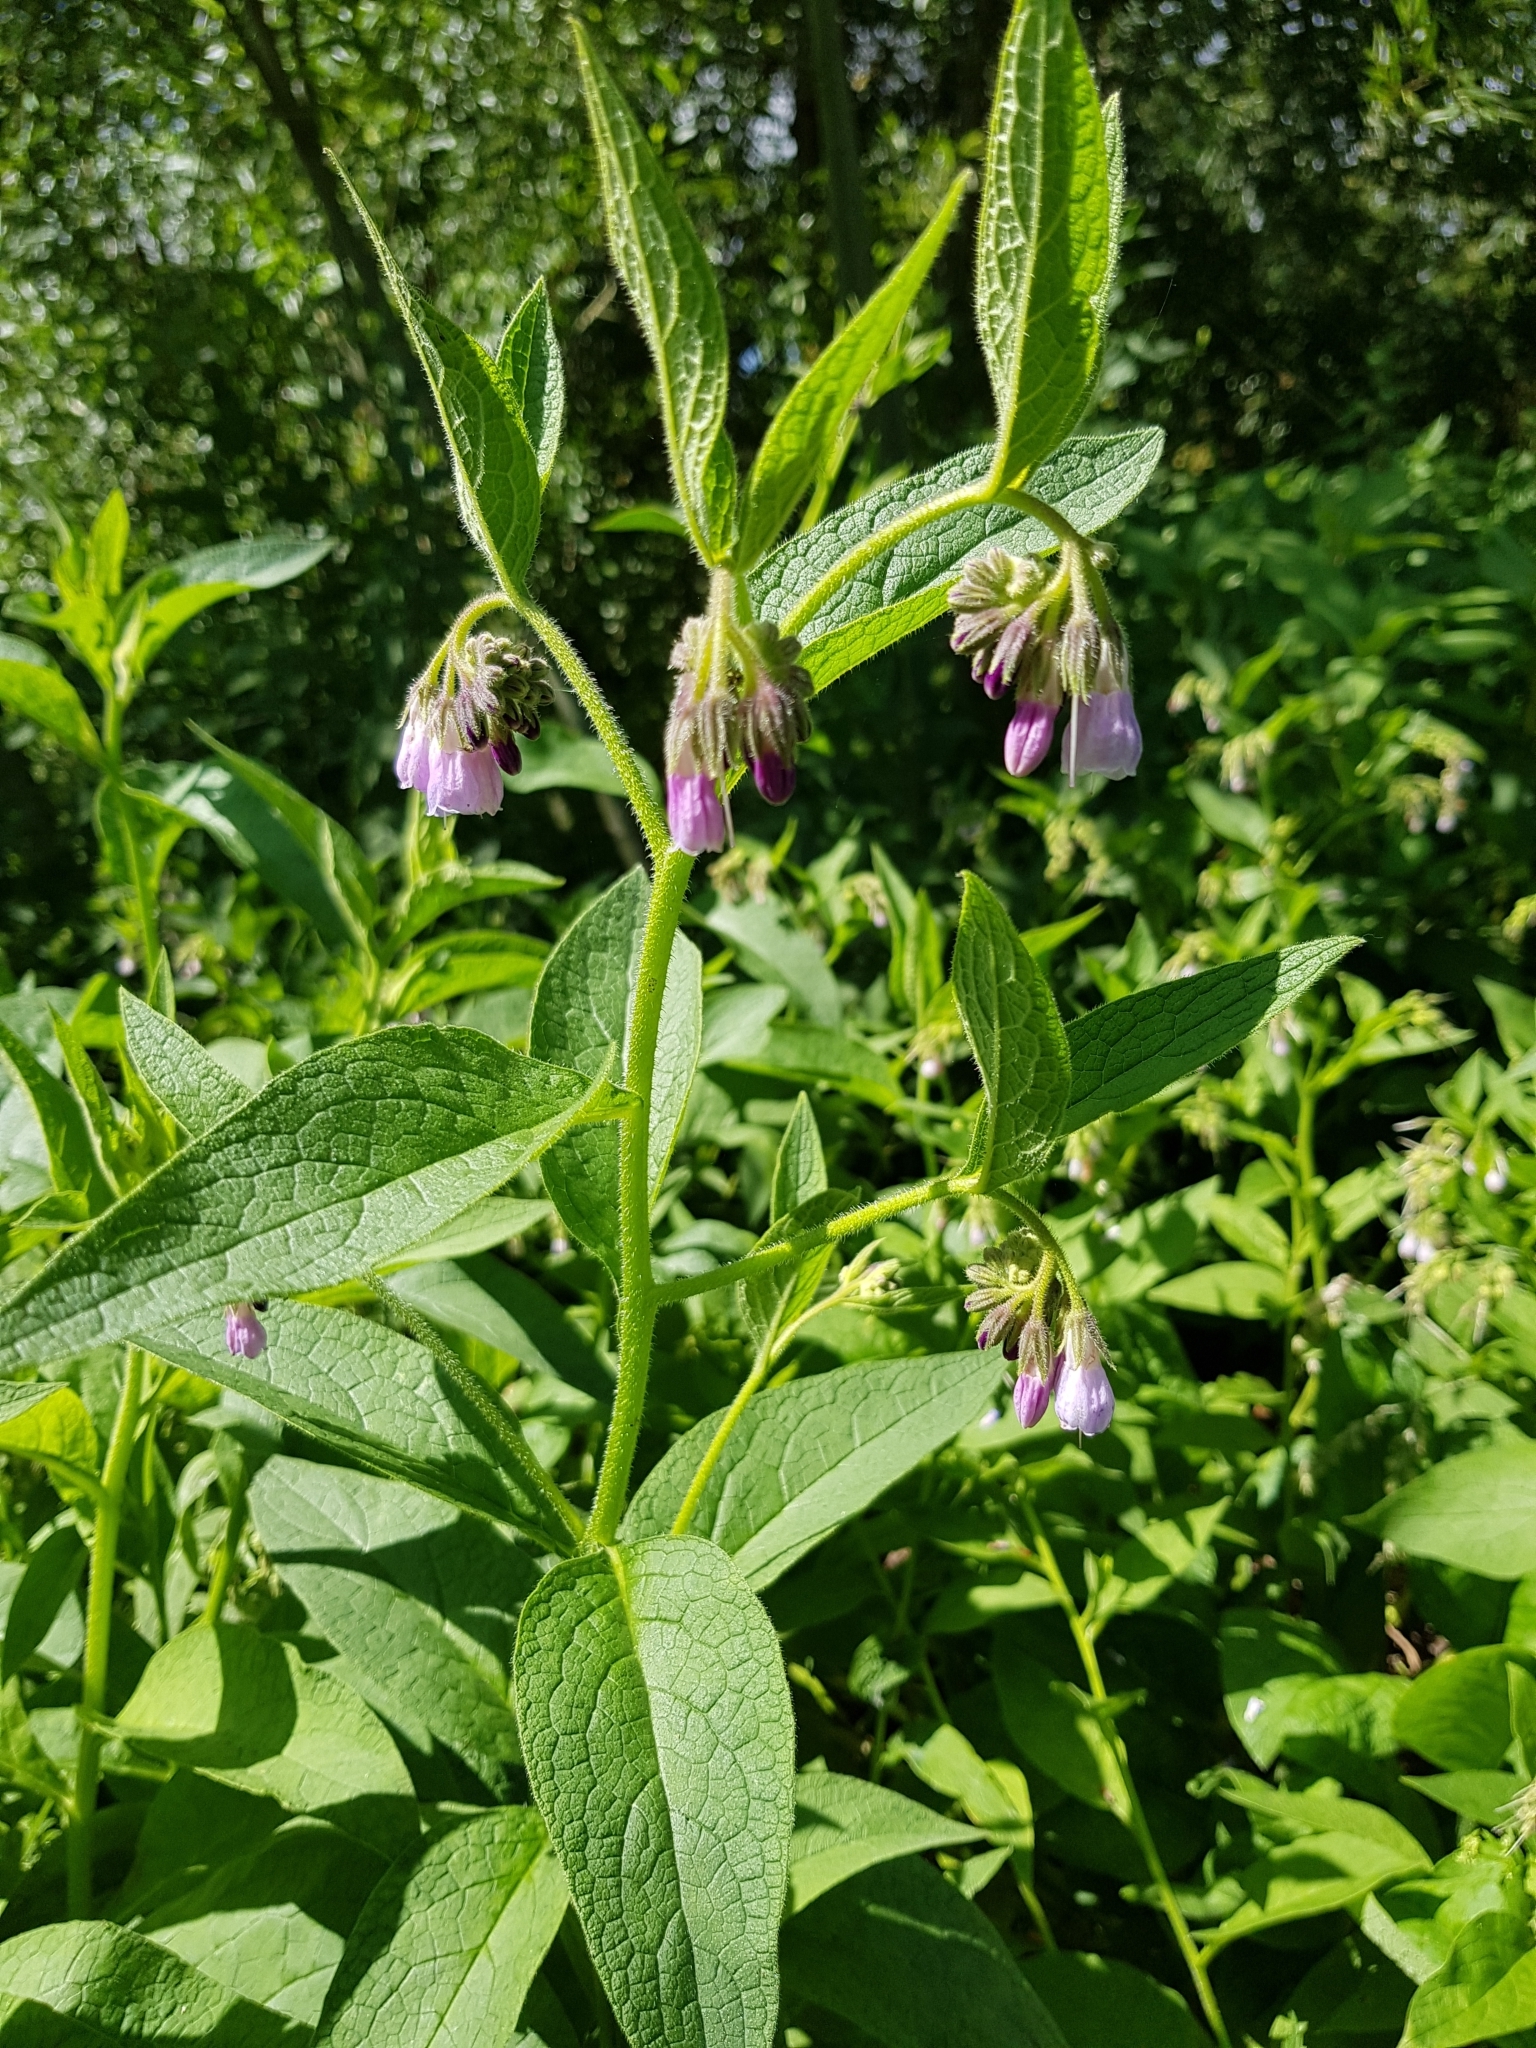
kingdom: Plantae
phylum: Tracheophyta
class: Magnoliopsida
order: Boraginales
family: Boraginaceae
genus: Symphytum
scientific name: Symphytum officinale
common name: Common comfrey
